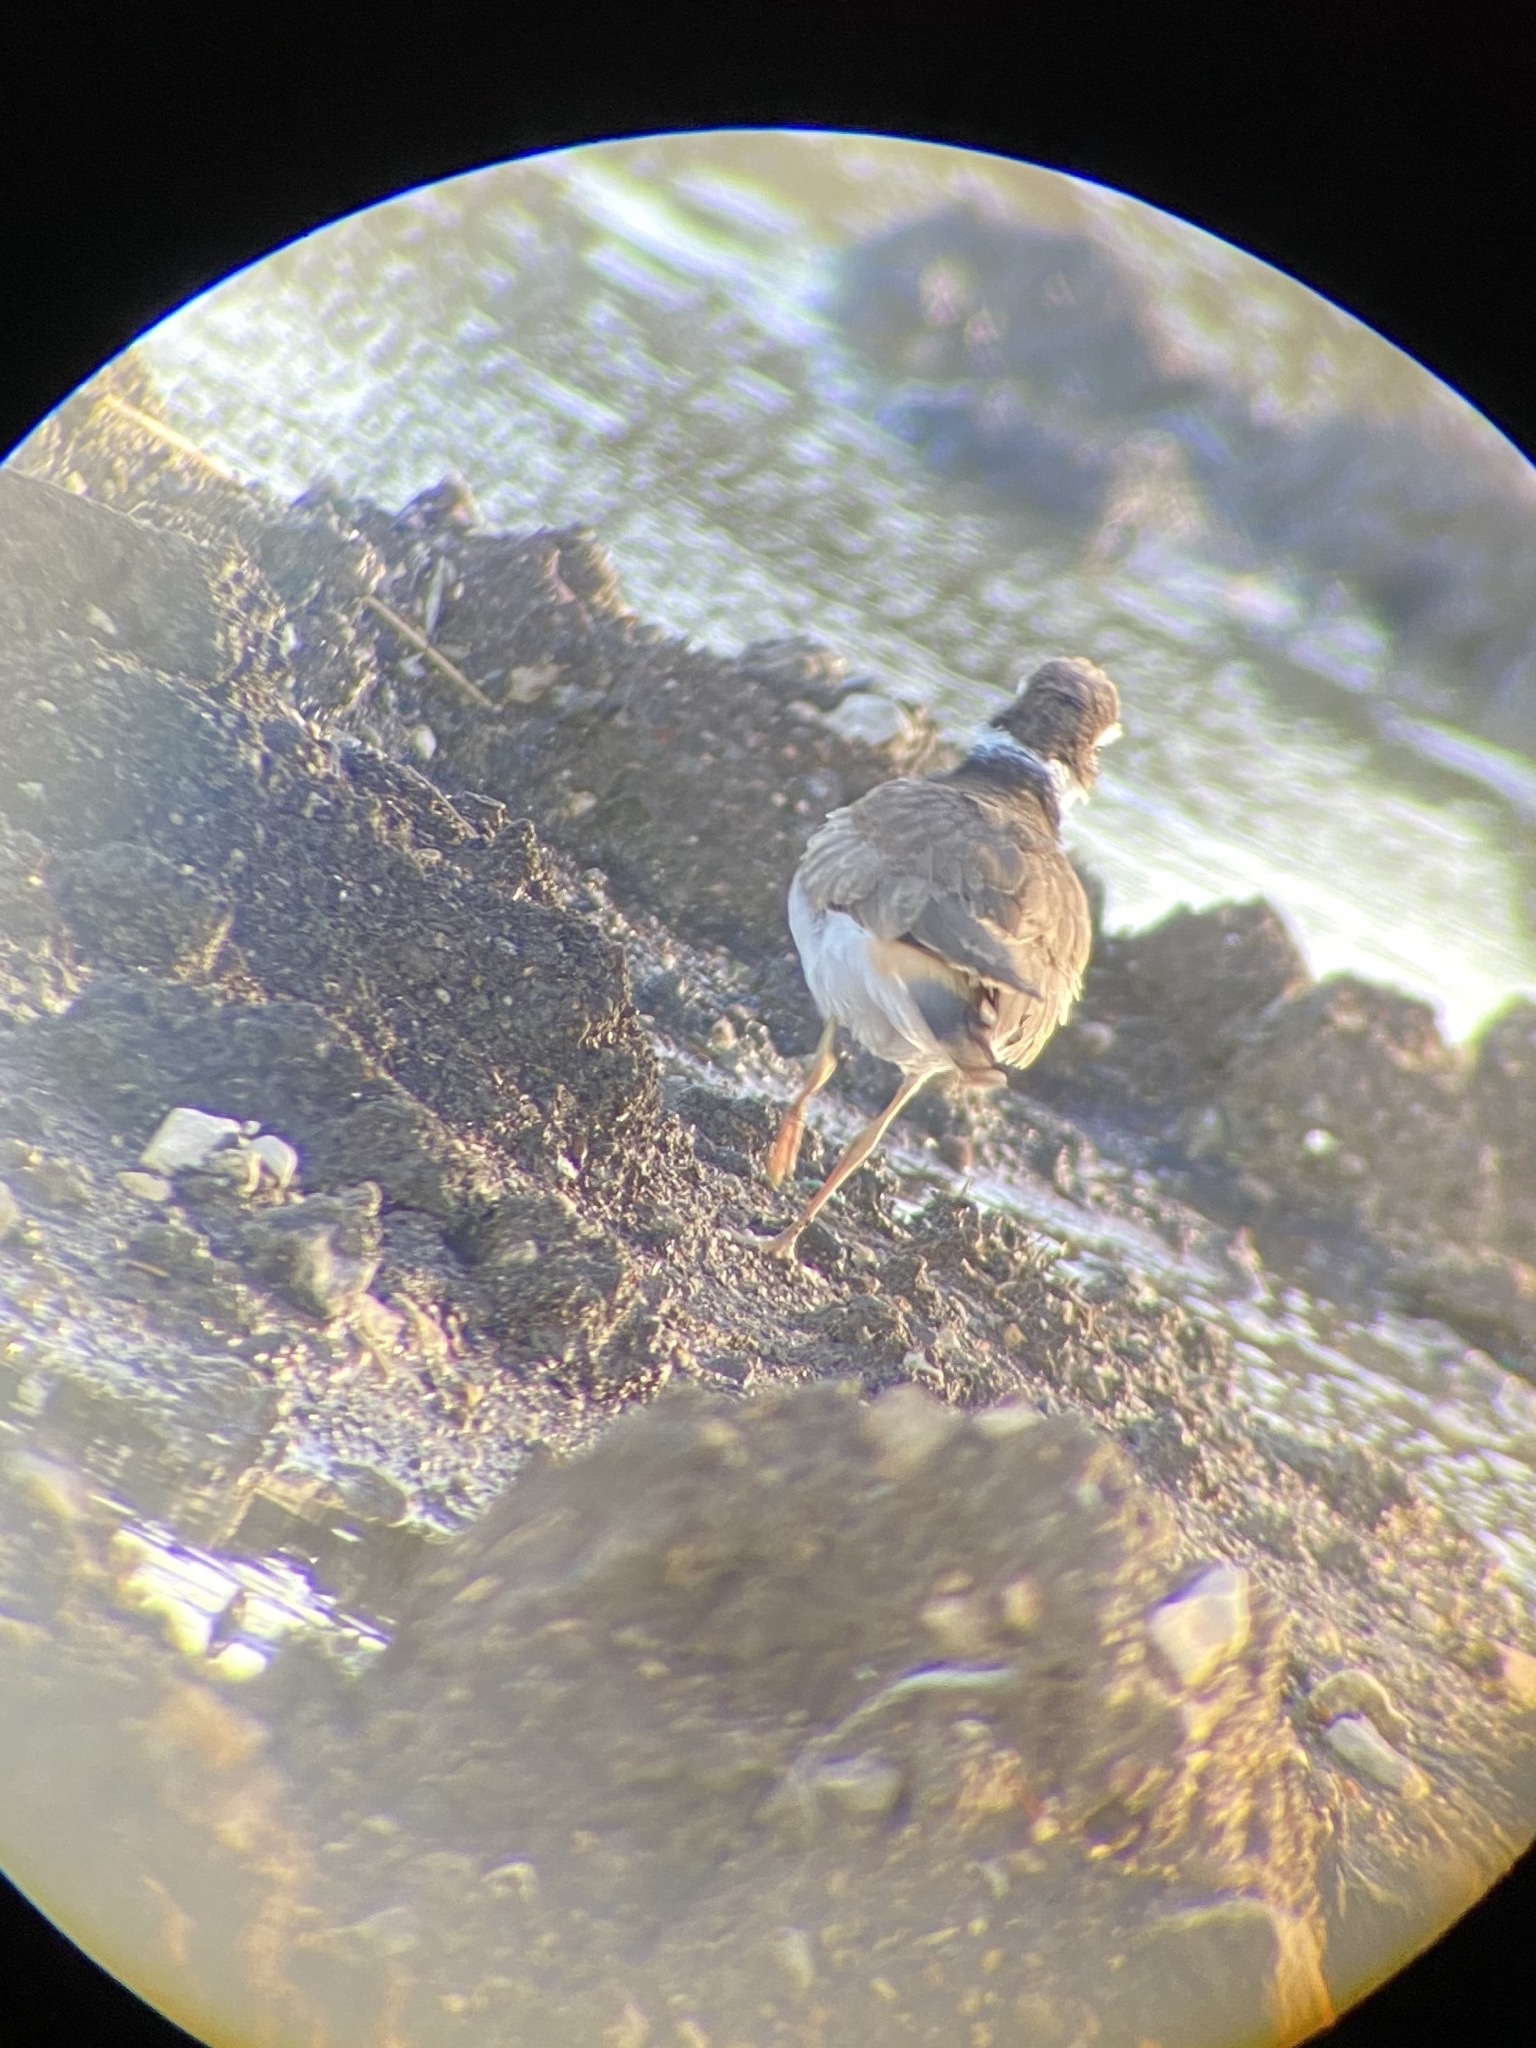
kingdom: Animalia
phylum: Chordata
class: Aves
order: Charadriiformes
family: Charadriidae
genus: Charadrius
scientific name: Charadrius vociferus
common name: Killdeer
